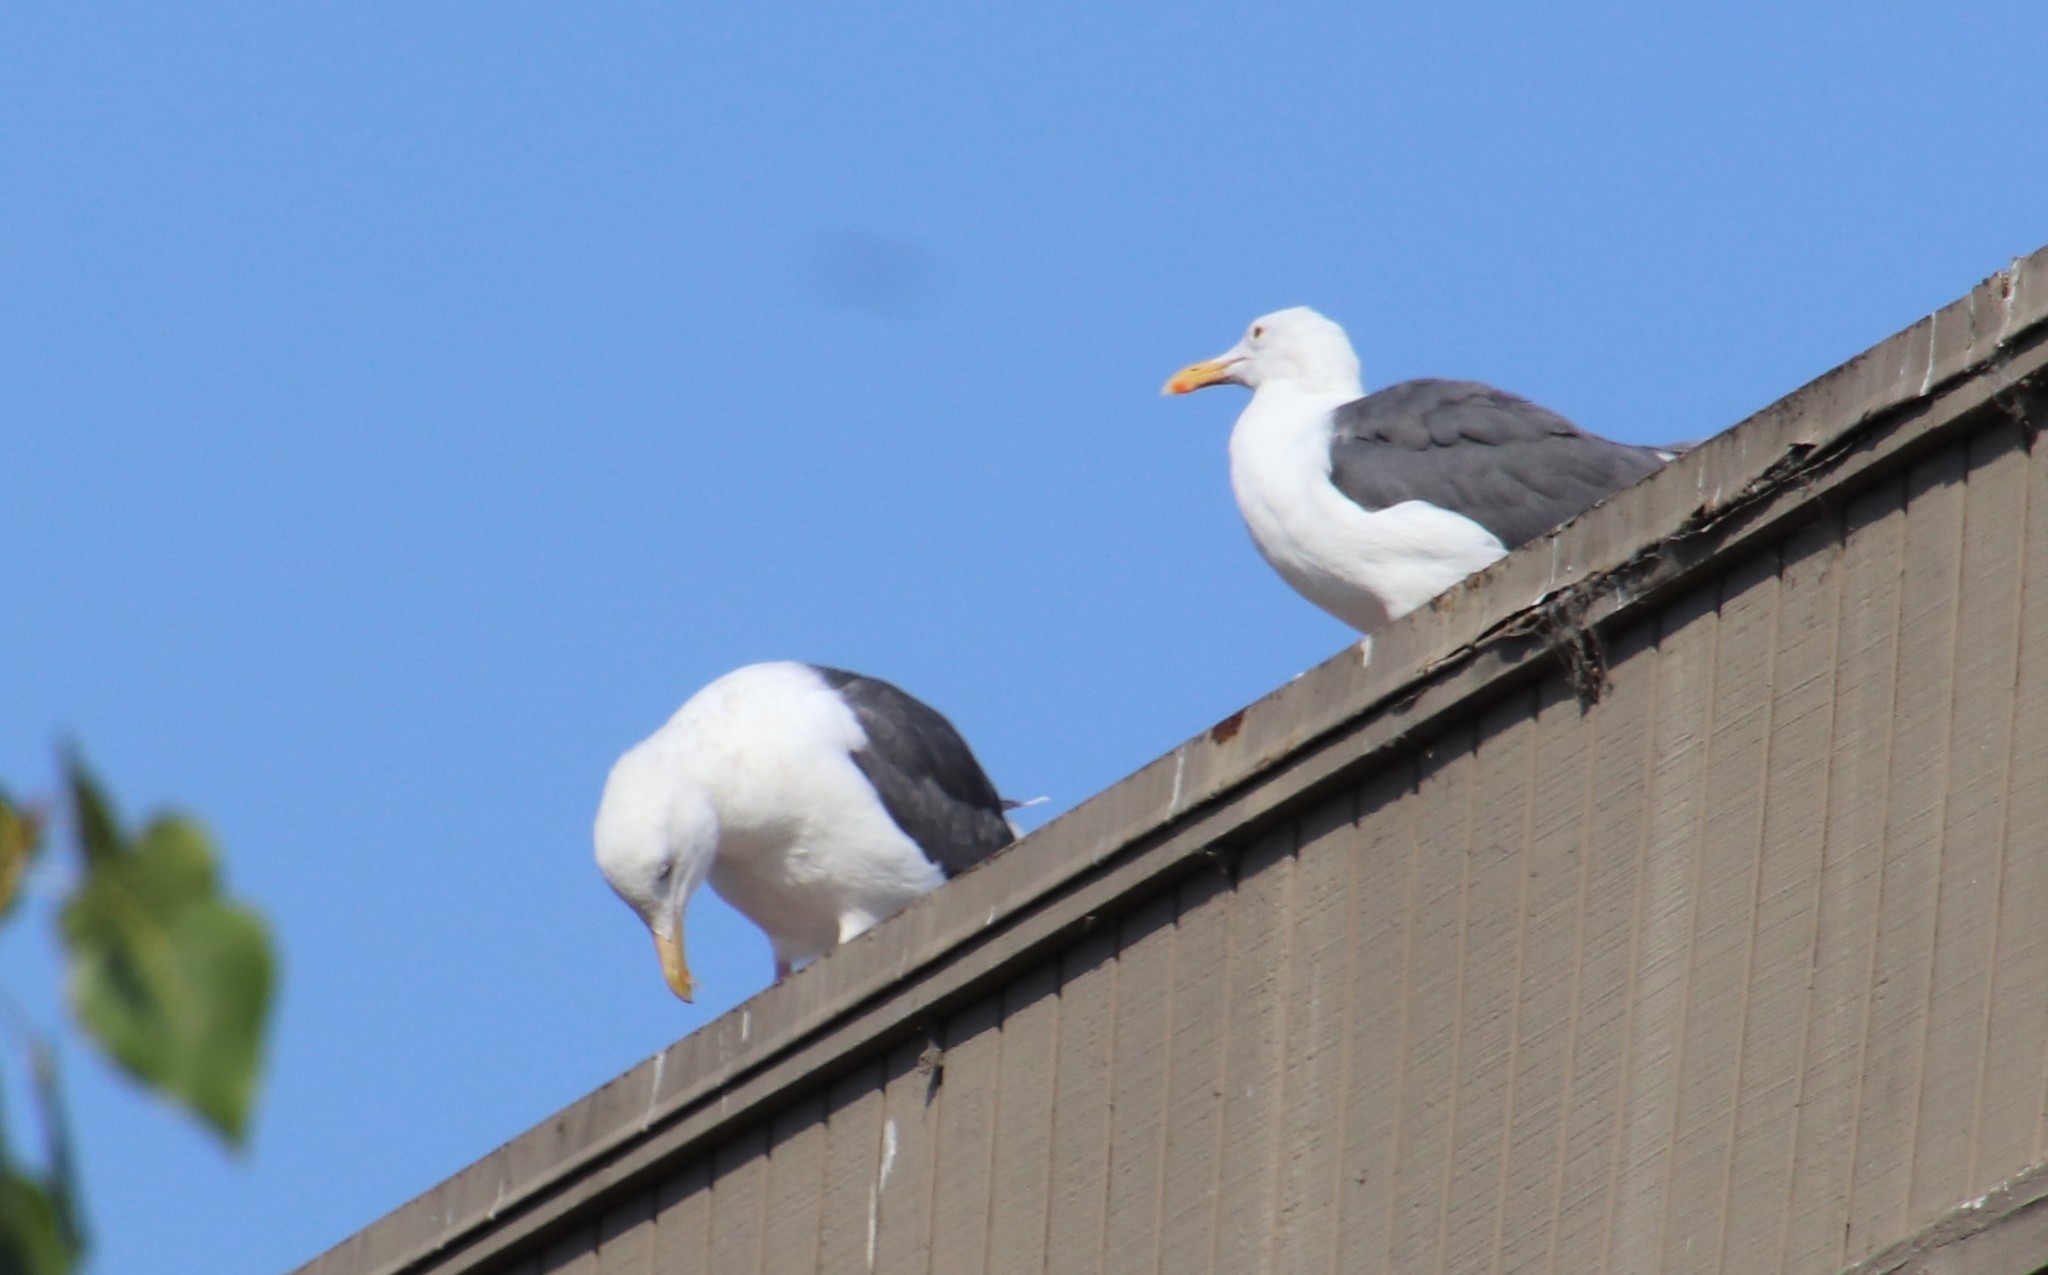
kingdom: Animalia
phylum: Chordata
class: Aves
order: Charadriiformes
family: Laridae
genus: Larus
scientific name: Larus occidentalis
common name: Western gull
